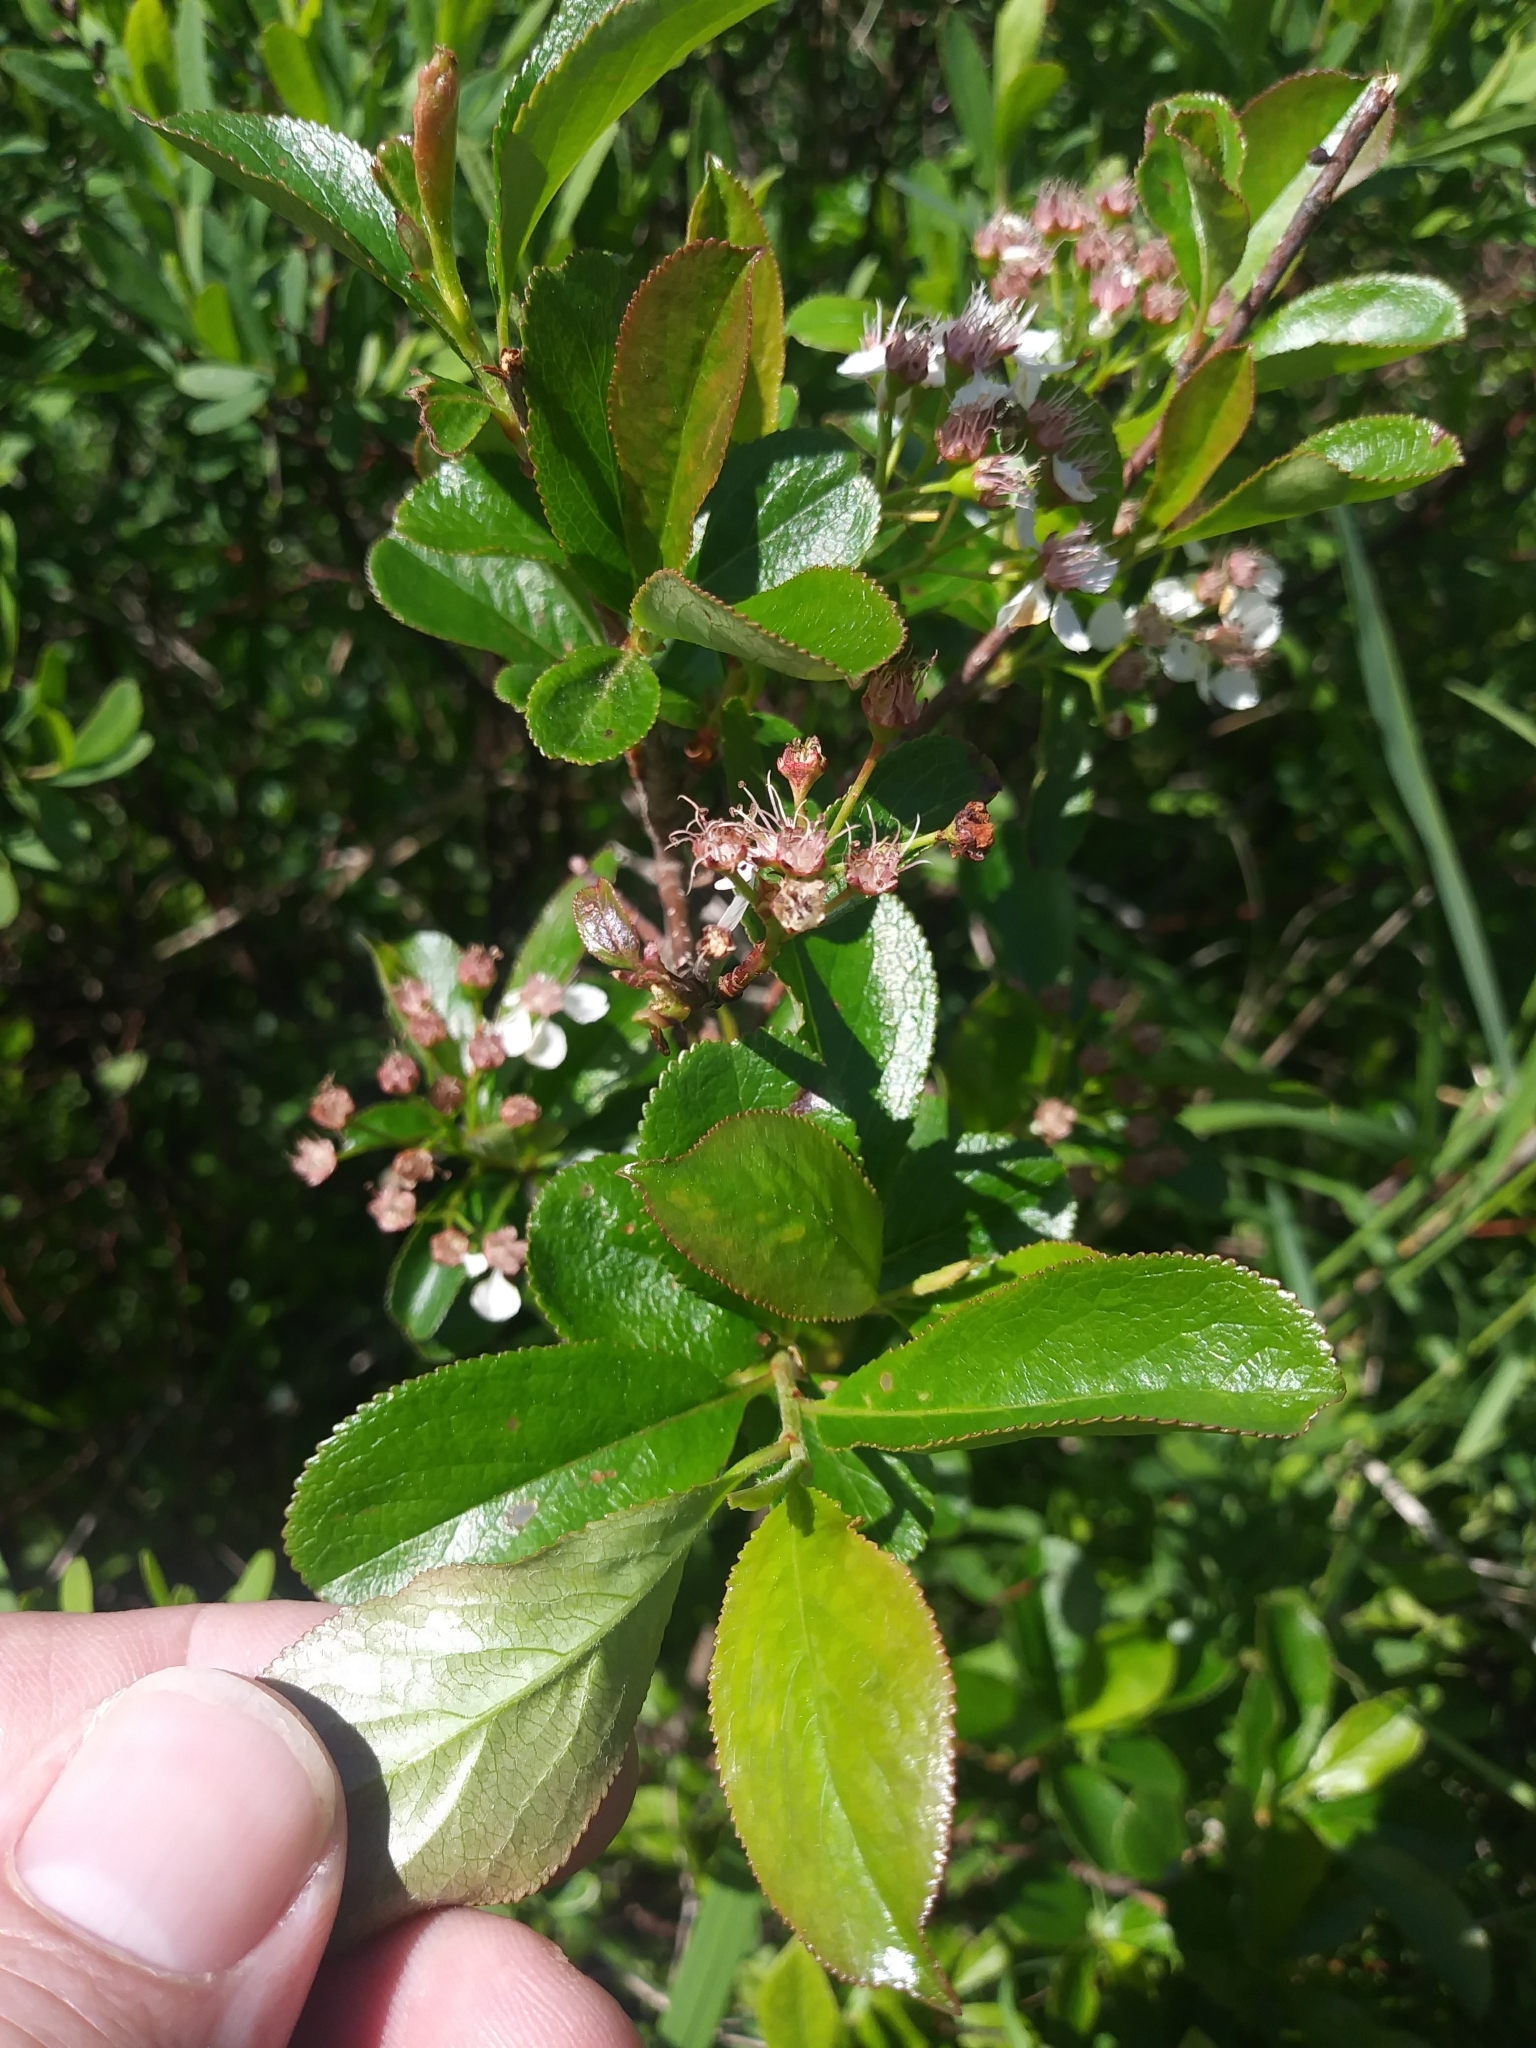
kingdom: Plantae
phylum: Tracheophyta
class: Magnoliopsida
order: Rosales
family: Rosaceae
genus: Aronia
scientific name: Aronia melanocarpa
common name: Black chokeberry
